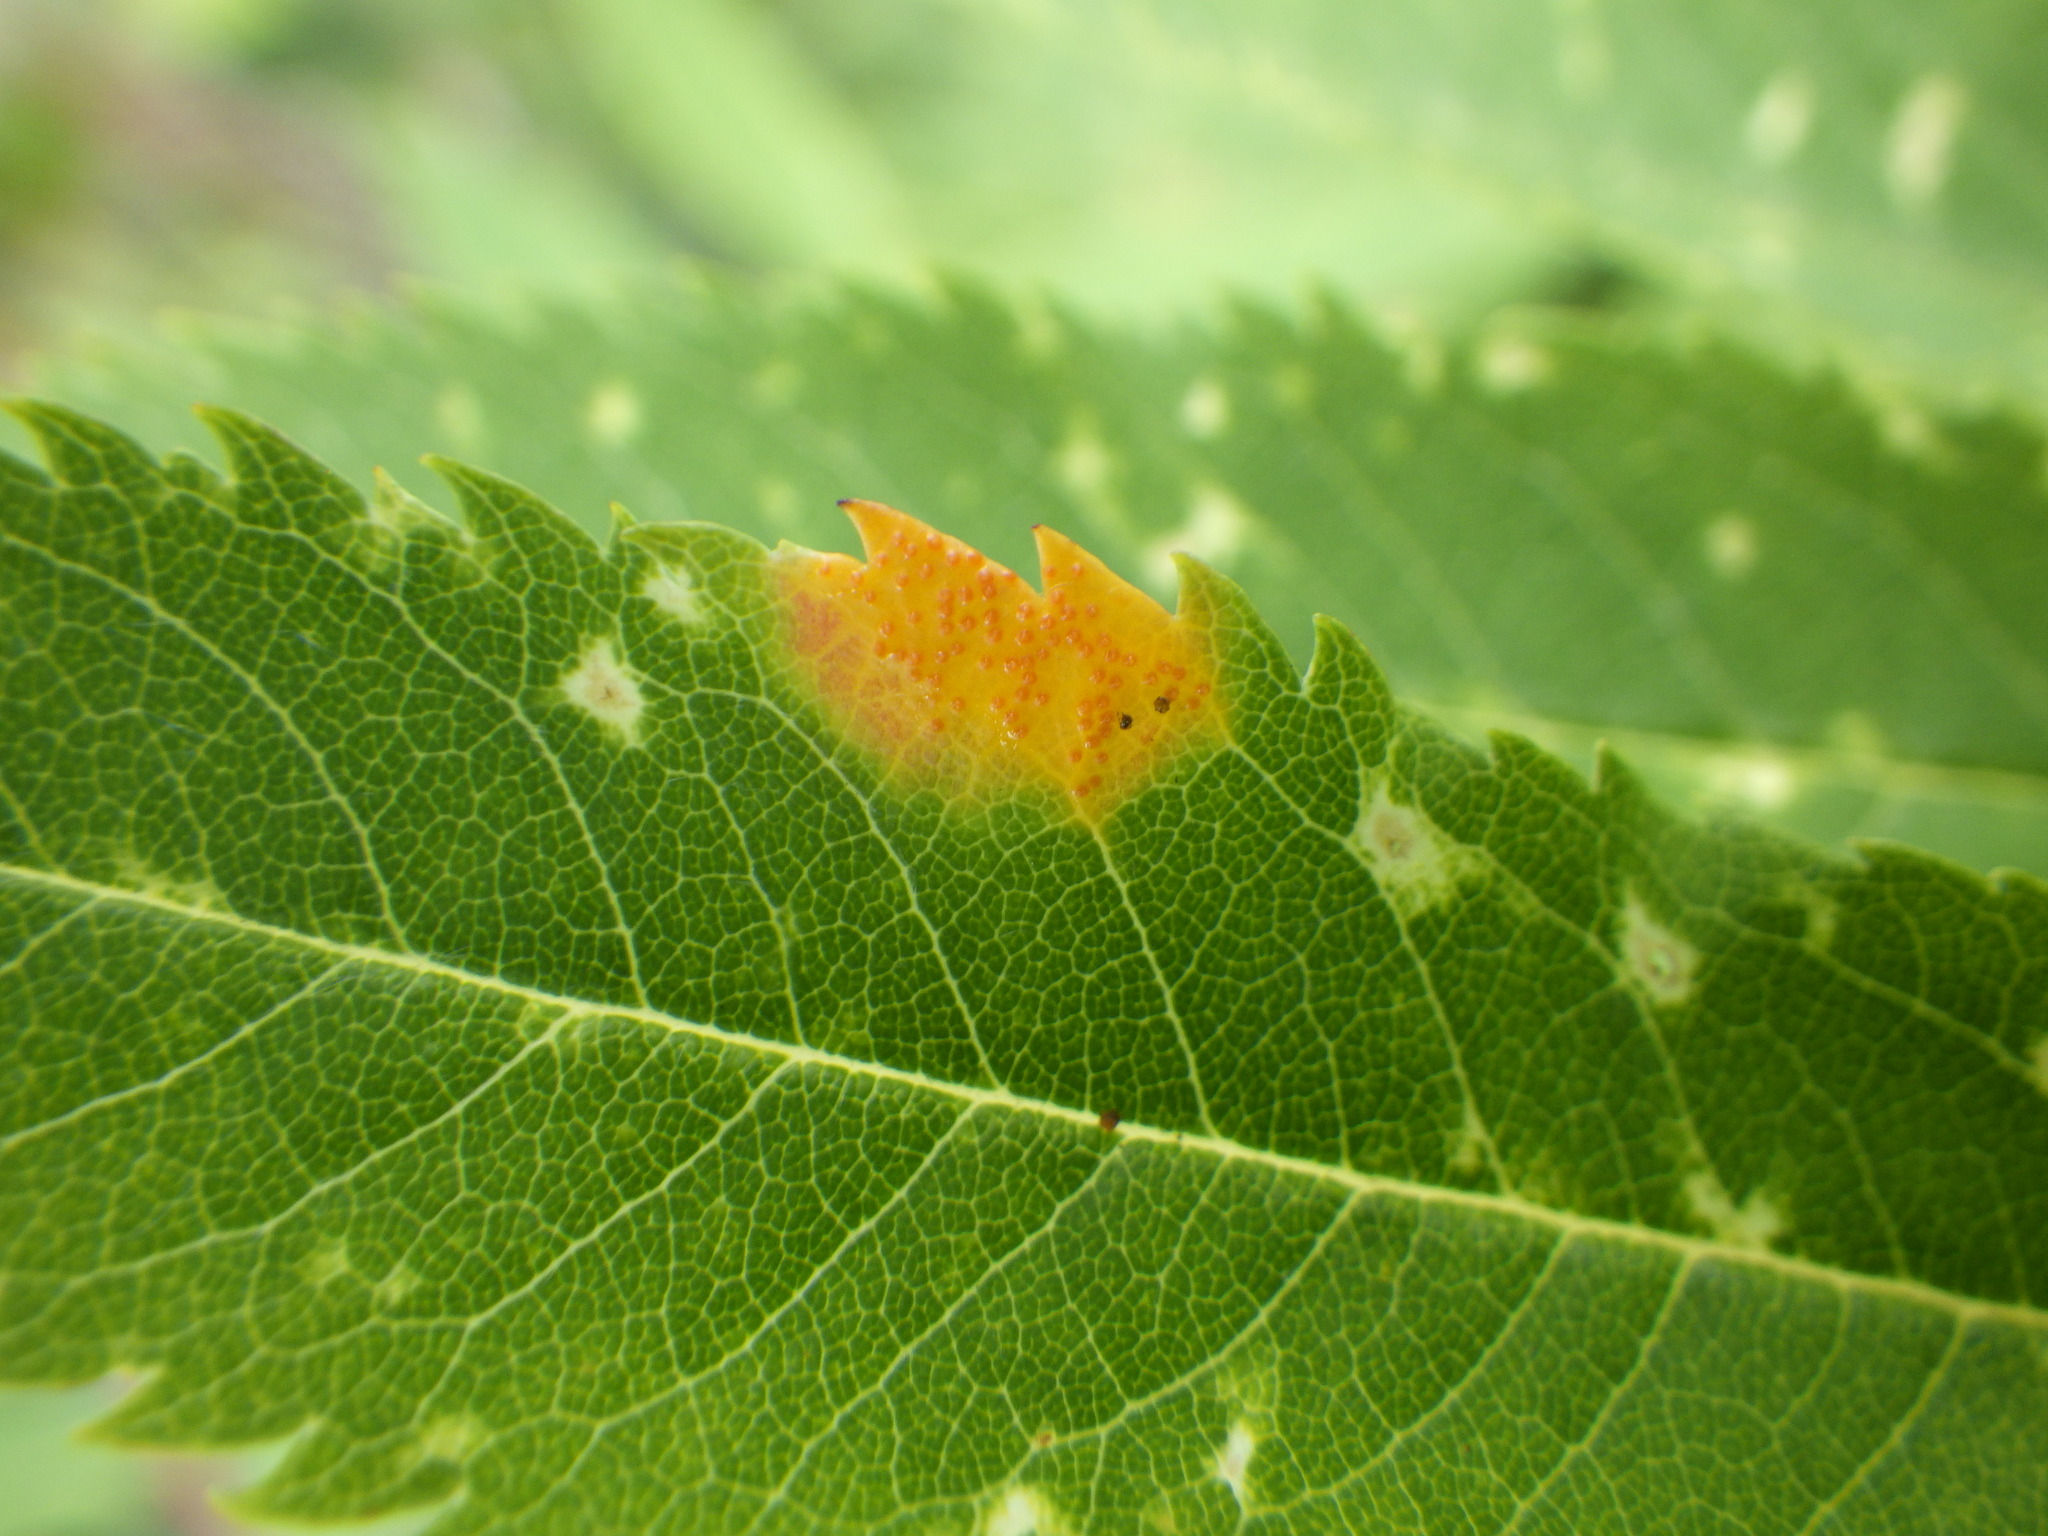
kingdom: Plantae
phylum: Tracheophyta
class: Magnoliopsida
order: Rosales
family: Rosaceae
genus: Sorbus
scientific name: Sorbus americana
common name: American mountain-ash
